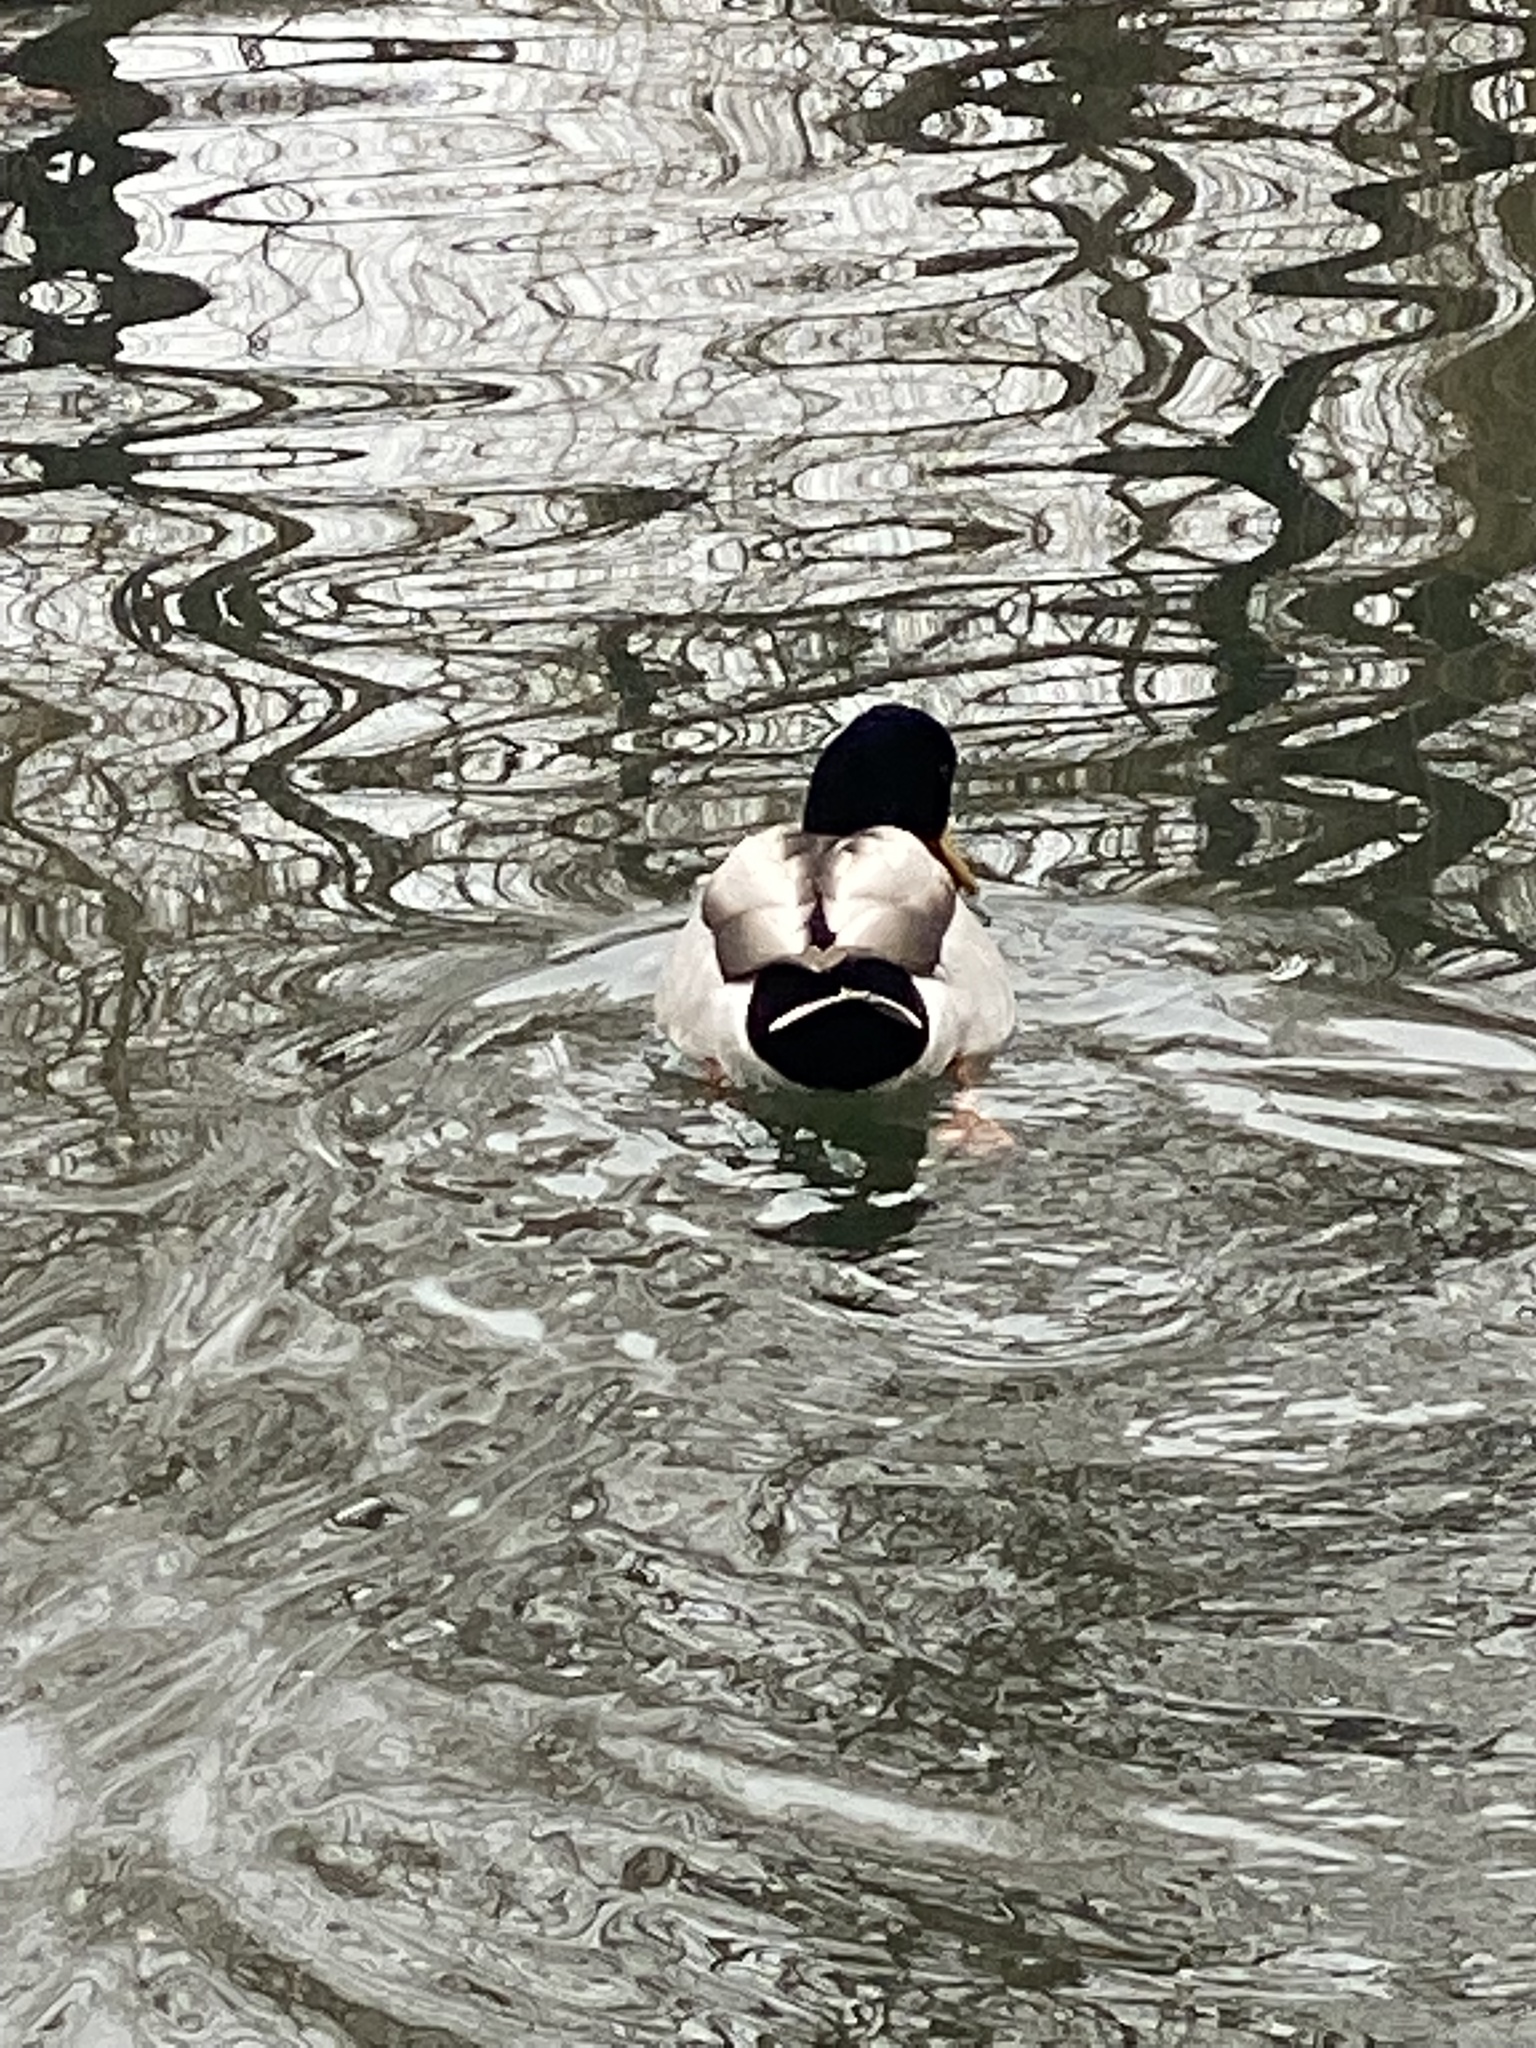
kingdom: Animalia
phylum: Chordata
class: Aves
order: Anseriformes
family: Anatidae
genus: Anas
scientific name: Anas platyrhynchos
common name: Mallard
